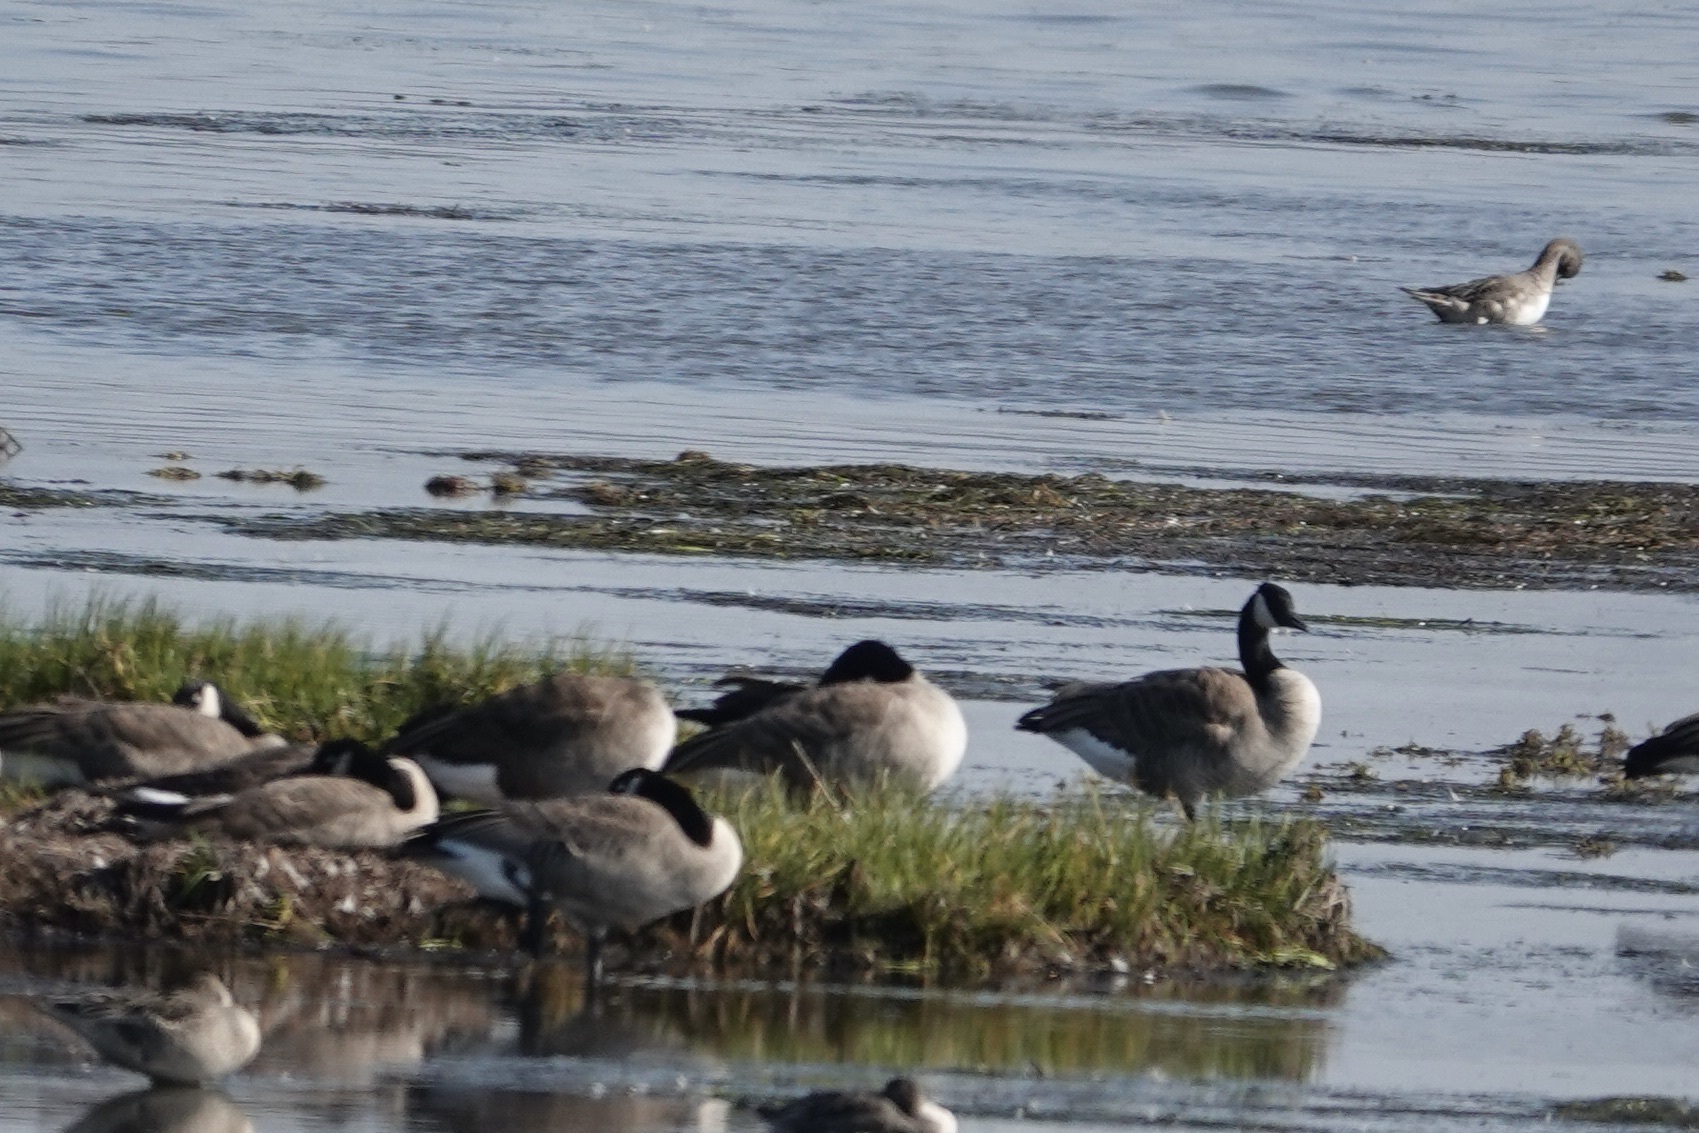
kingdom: Animalia
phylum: Chordata
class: Aves
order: Anseriformes
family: Anatidae
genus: Branta
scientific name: Branta canadensis
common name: Canada goose
